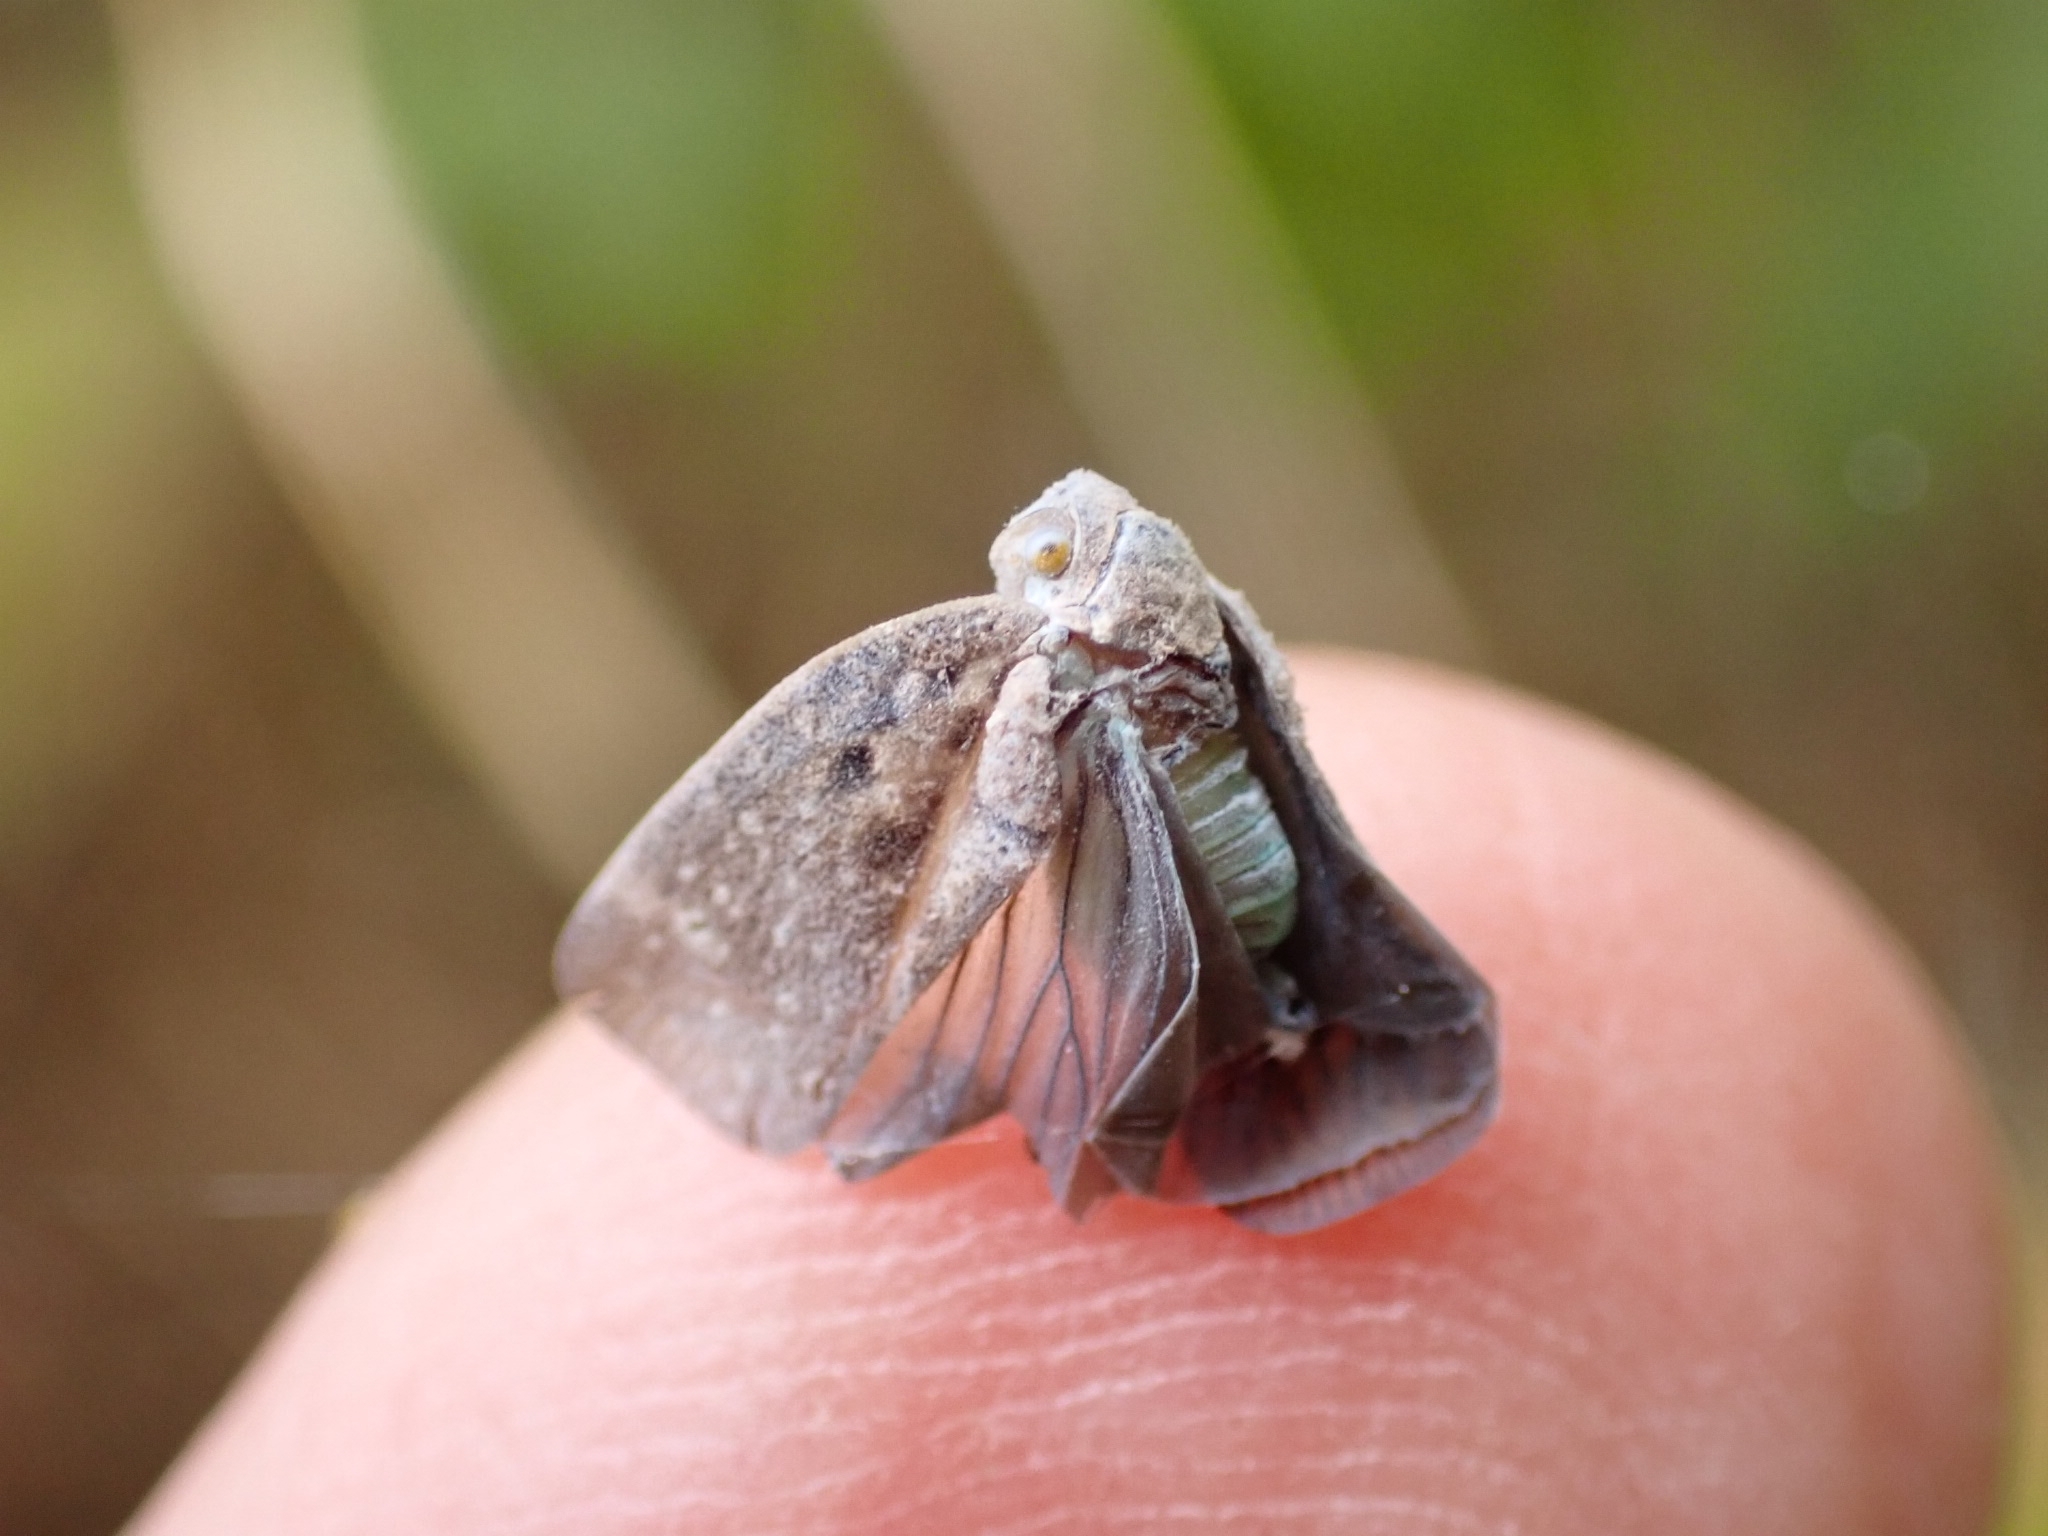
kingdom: Animalia
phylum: Arthropoda
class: Insecta
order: Hemiptera
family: Flatidae
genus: Metcalfa
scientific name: Metcalfa pruinosa
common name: Citrus flatid planthopper
